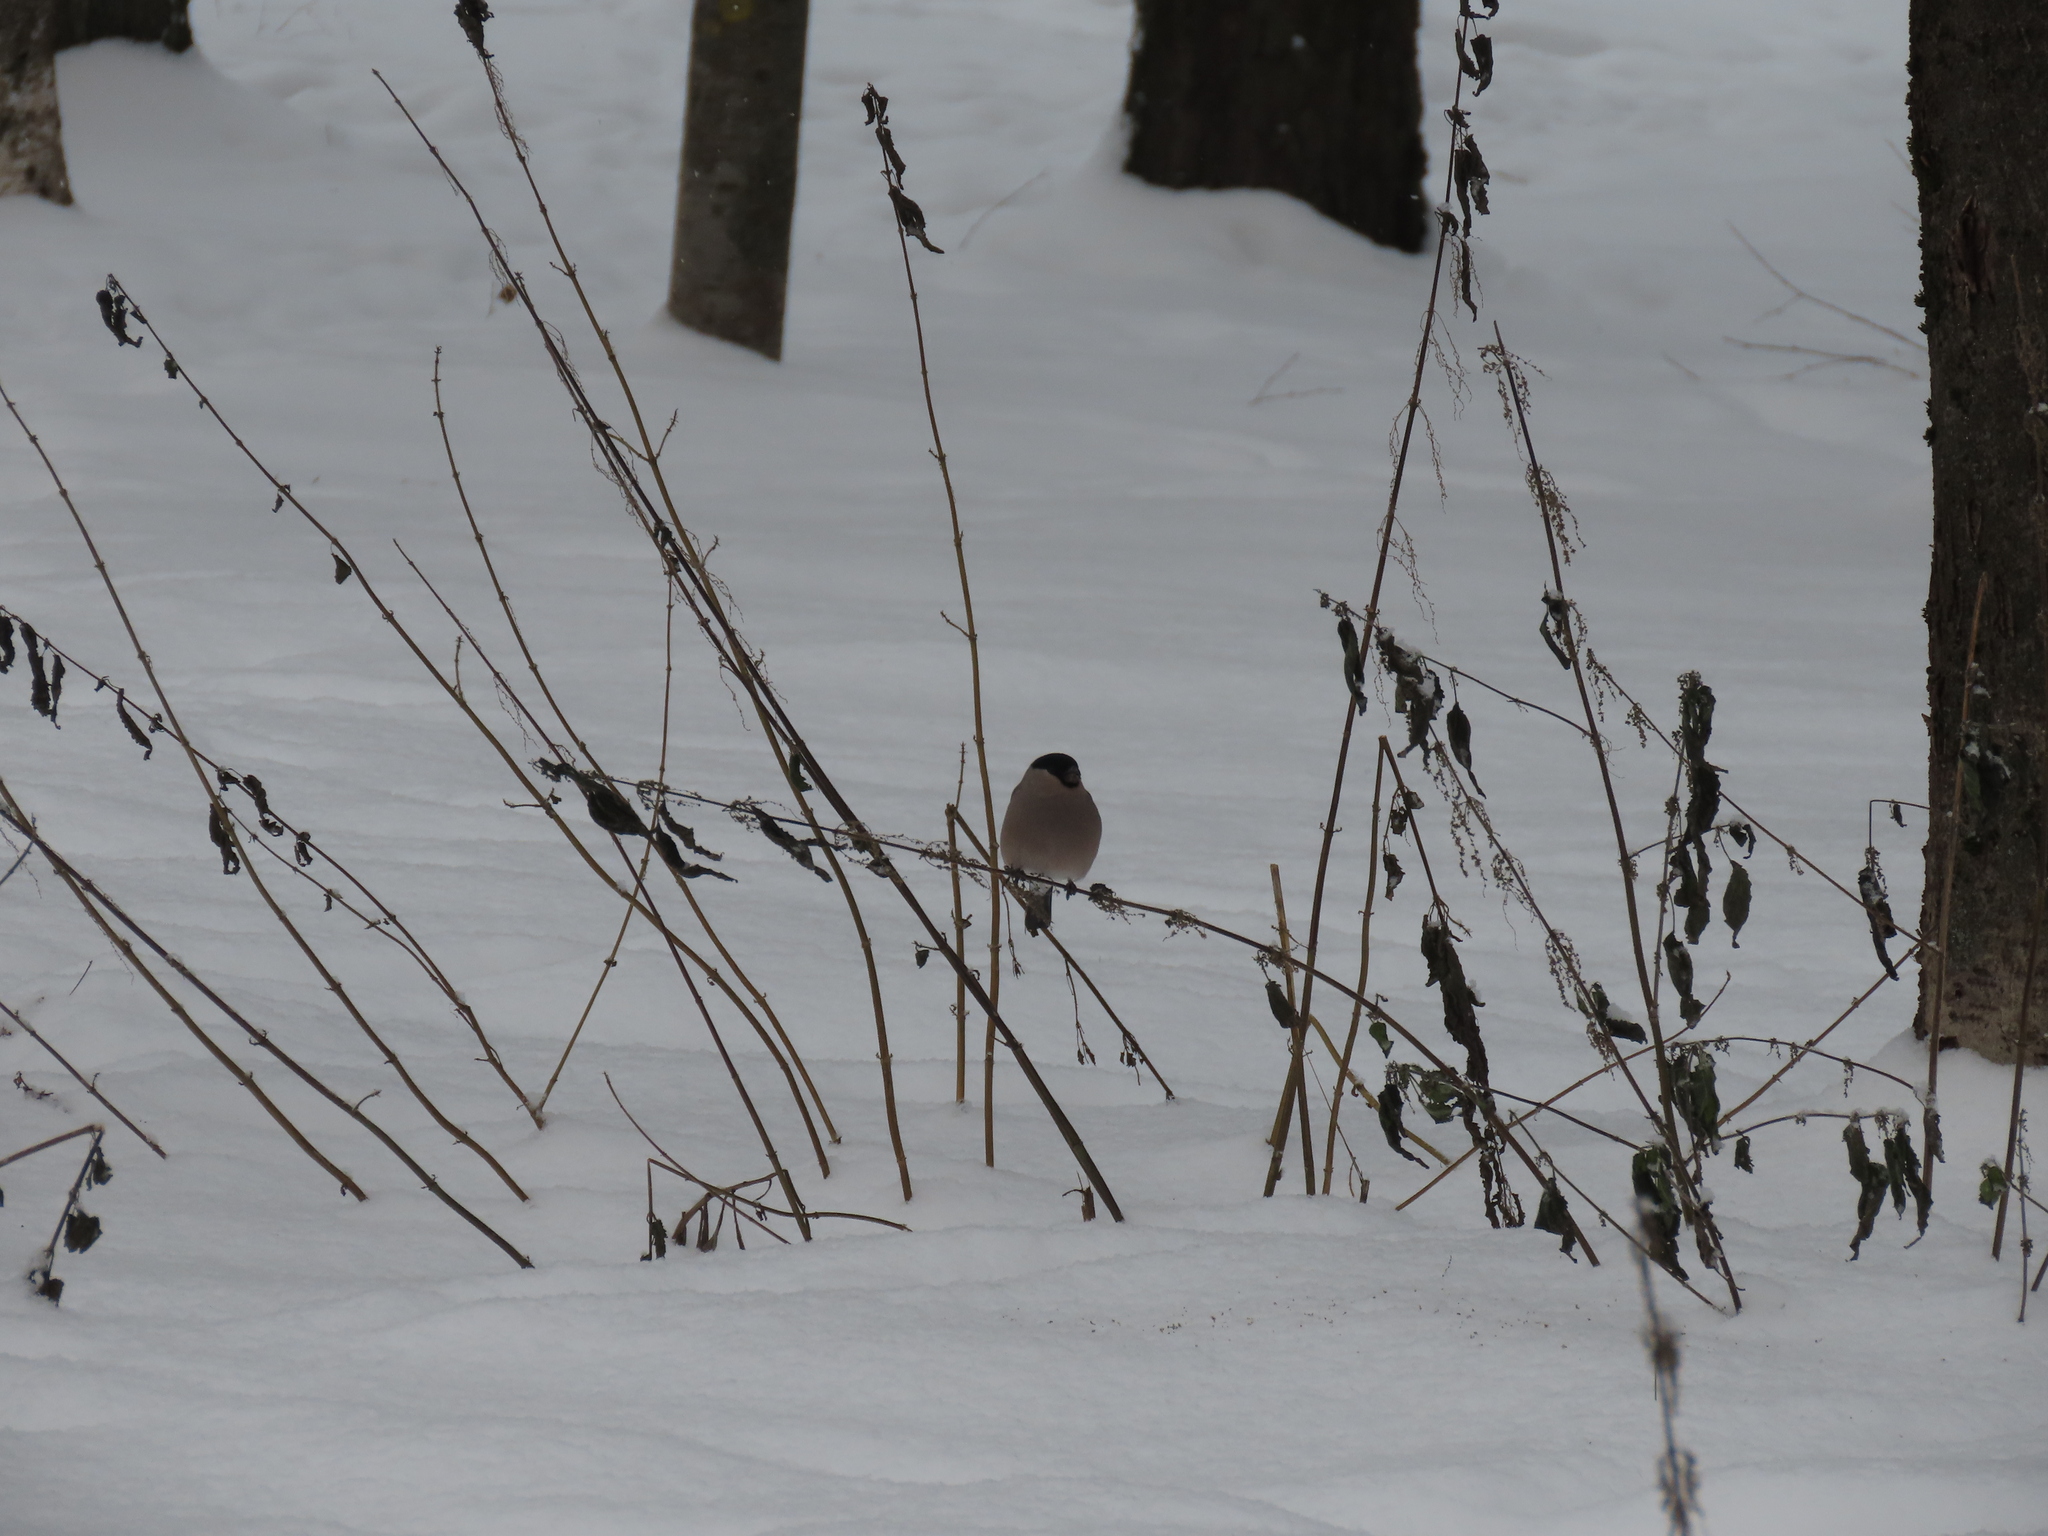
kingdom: Animalia
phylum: Chordata
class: Aves
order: Passeriformes
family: Fringillidae
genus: Pyrrhula
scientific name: Pyrrhula pyrrhula
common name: Eurasian bullfinch
